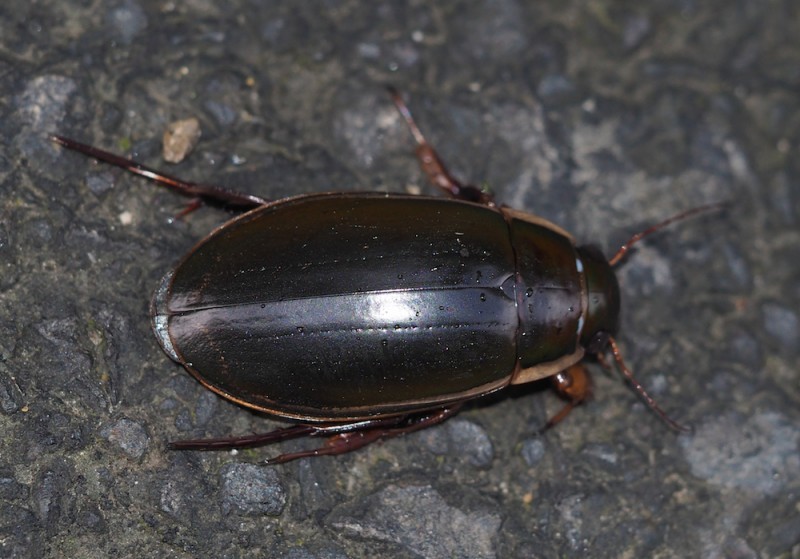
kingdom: Animalia
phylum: Arthropoda
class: Insecta
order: Coleoptera
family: Dytiscidae
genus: Dytiscus
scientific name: Dytiscus dimidiatus
